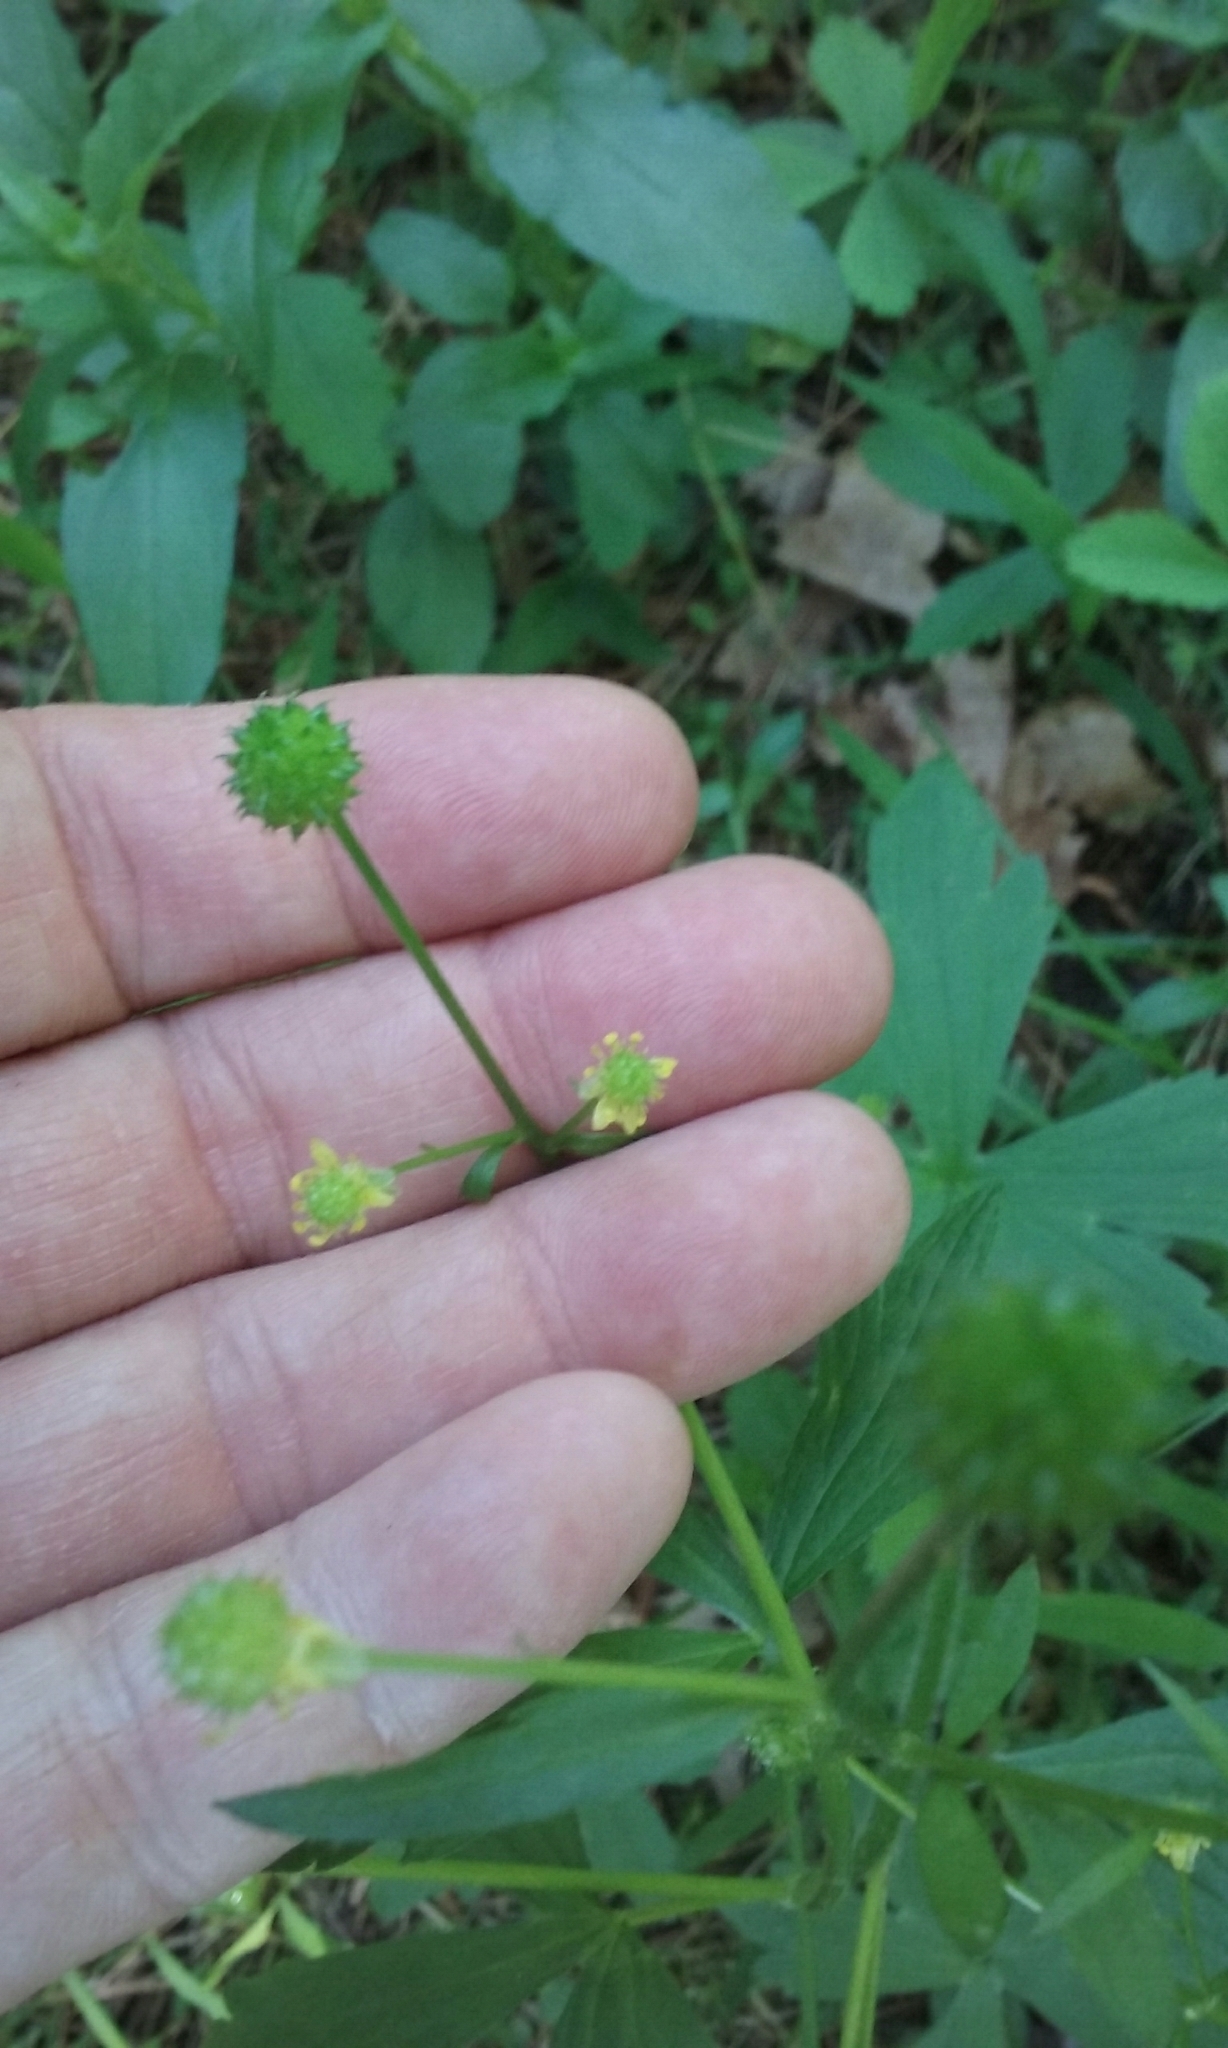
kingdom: Plantae
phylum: Tracheophyta
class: Magnoliopsida
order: Ranunculales
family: Ranunculaceae
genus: Ranunculus
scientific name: Ranunculus abortivus
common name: Early wood buttercup
